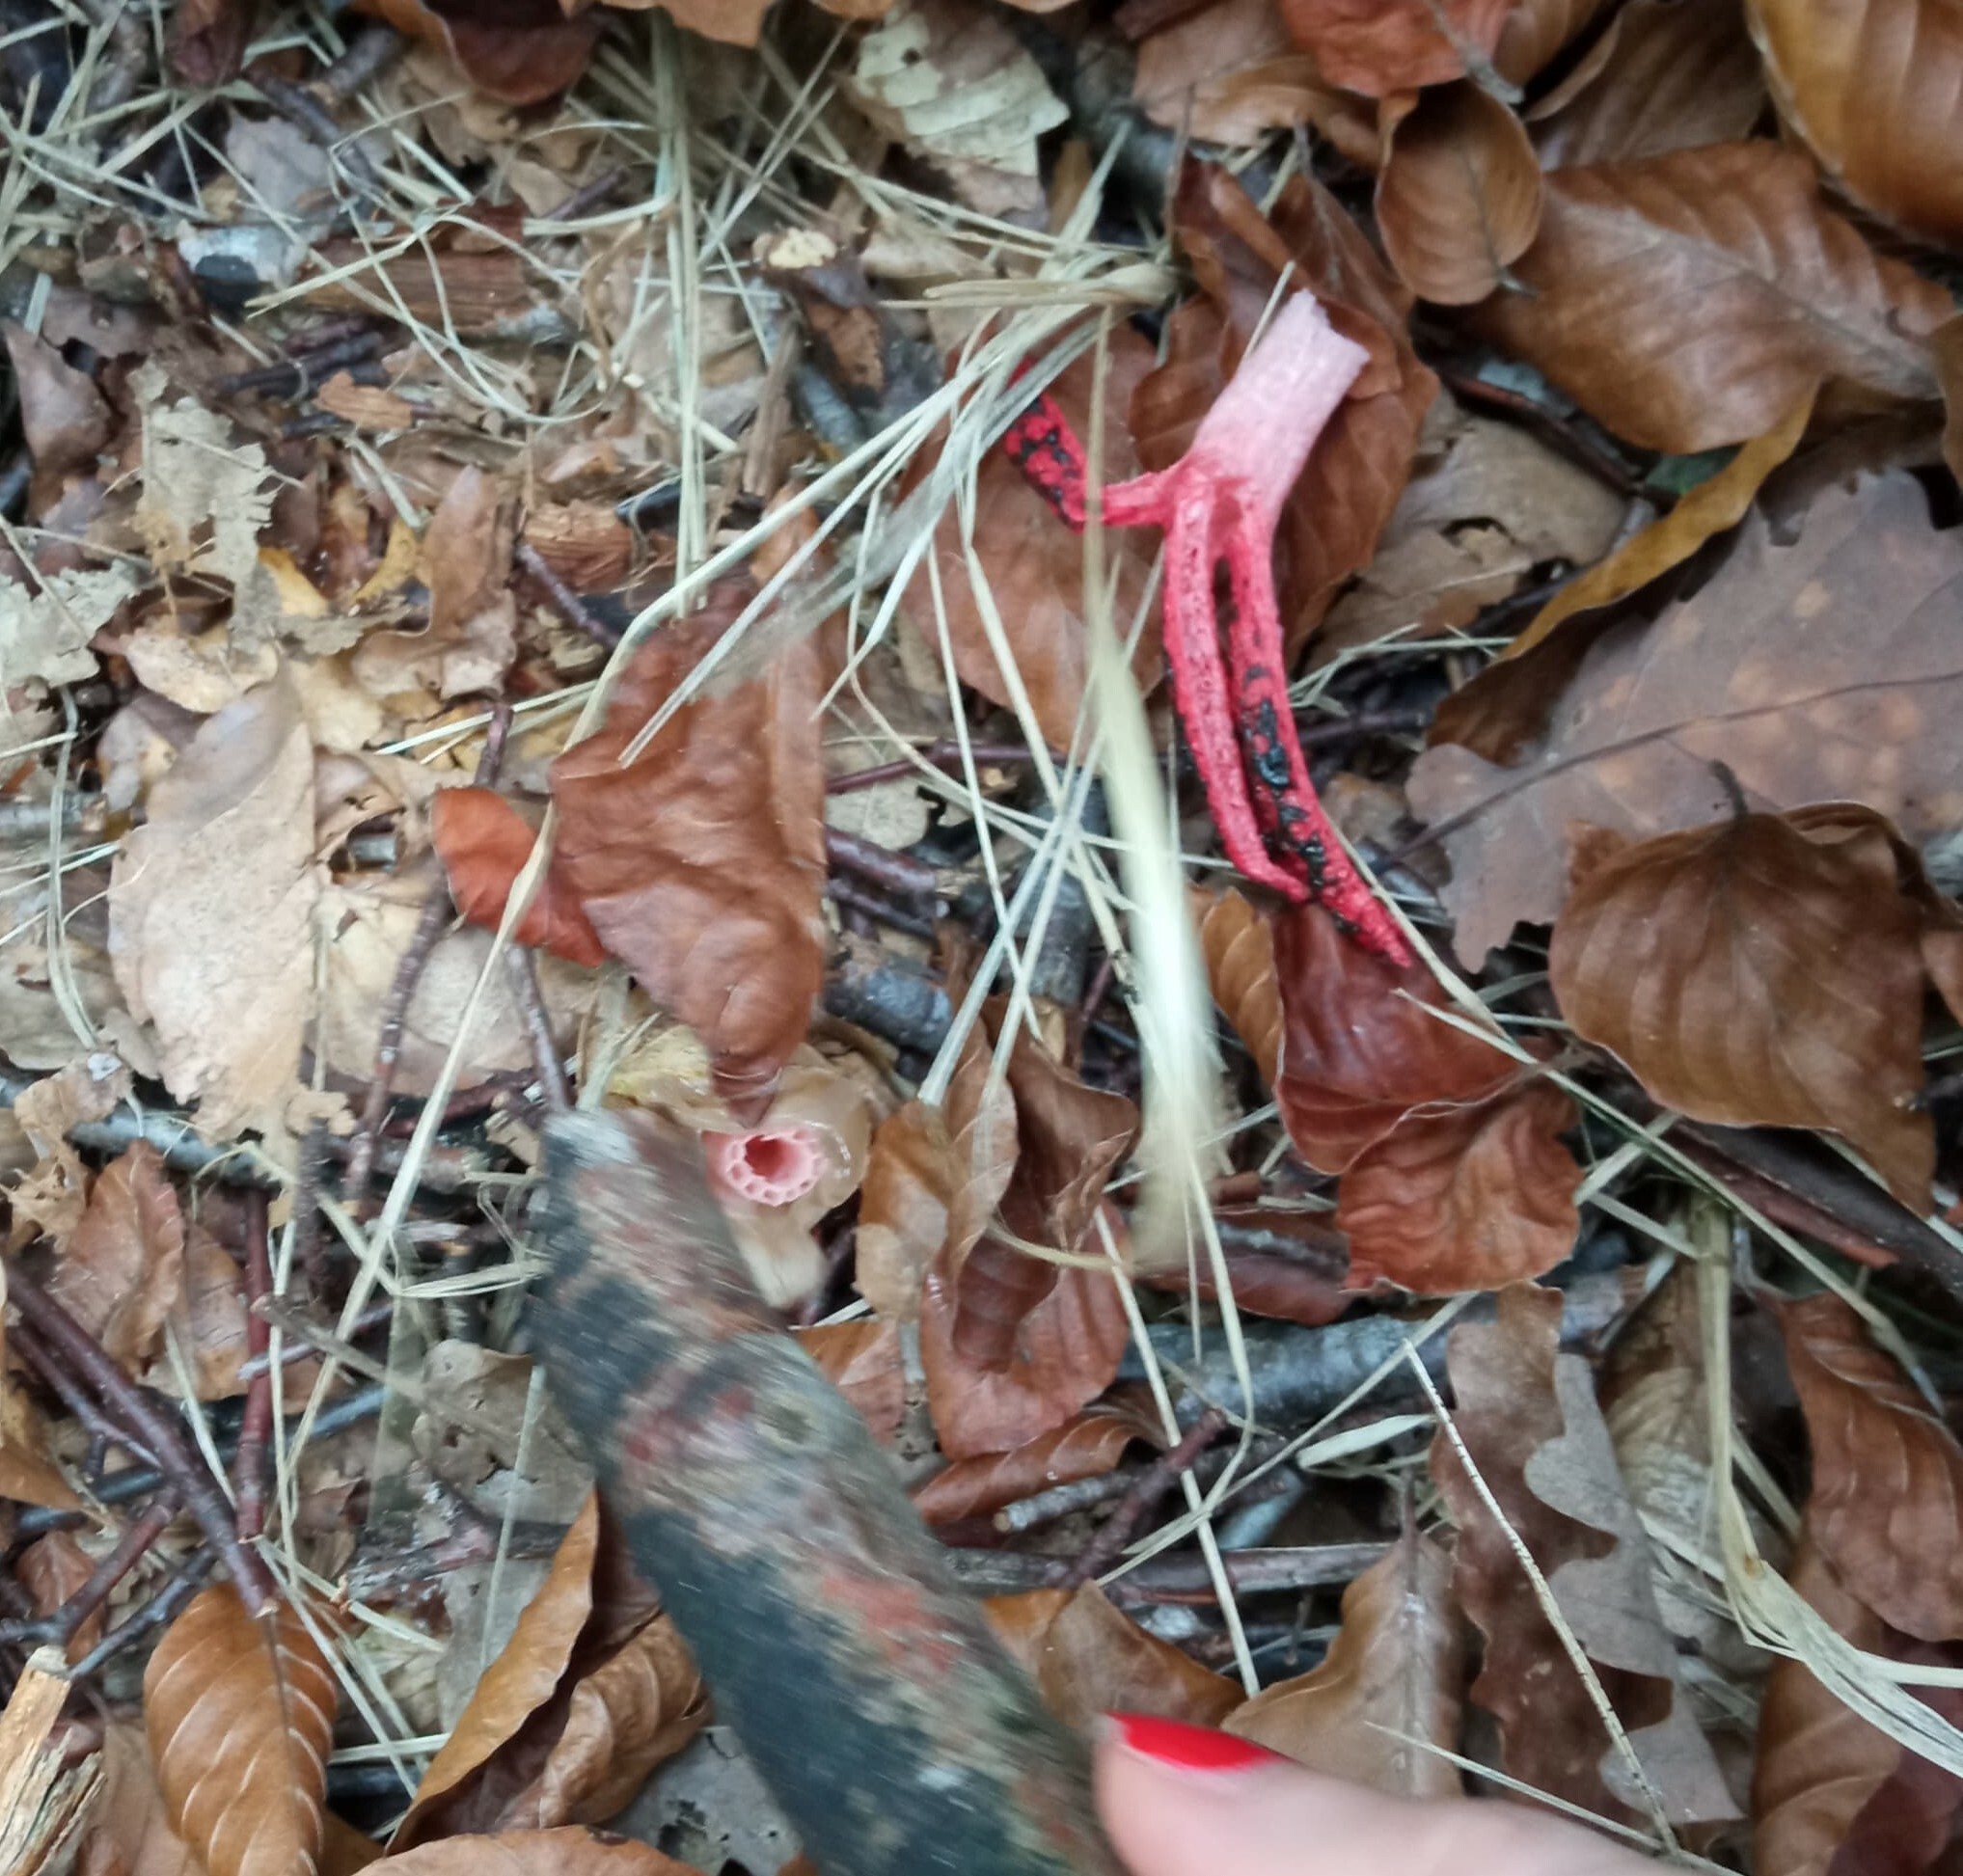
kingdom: Fungi
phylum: Basidiomycota
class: Agaricomycetes
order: Phallales
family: Phallaceae
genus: Clathrus
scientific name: Clathrus archeri
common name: Devil's fingers
